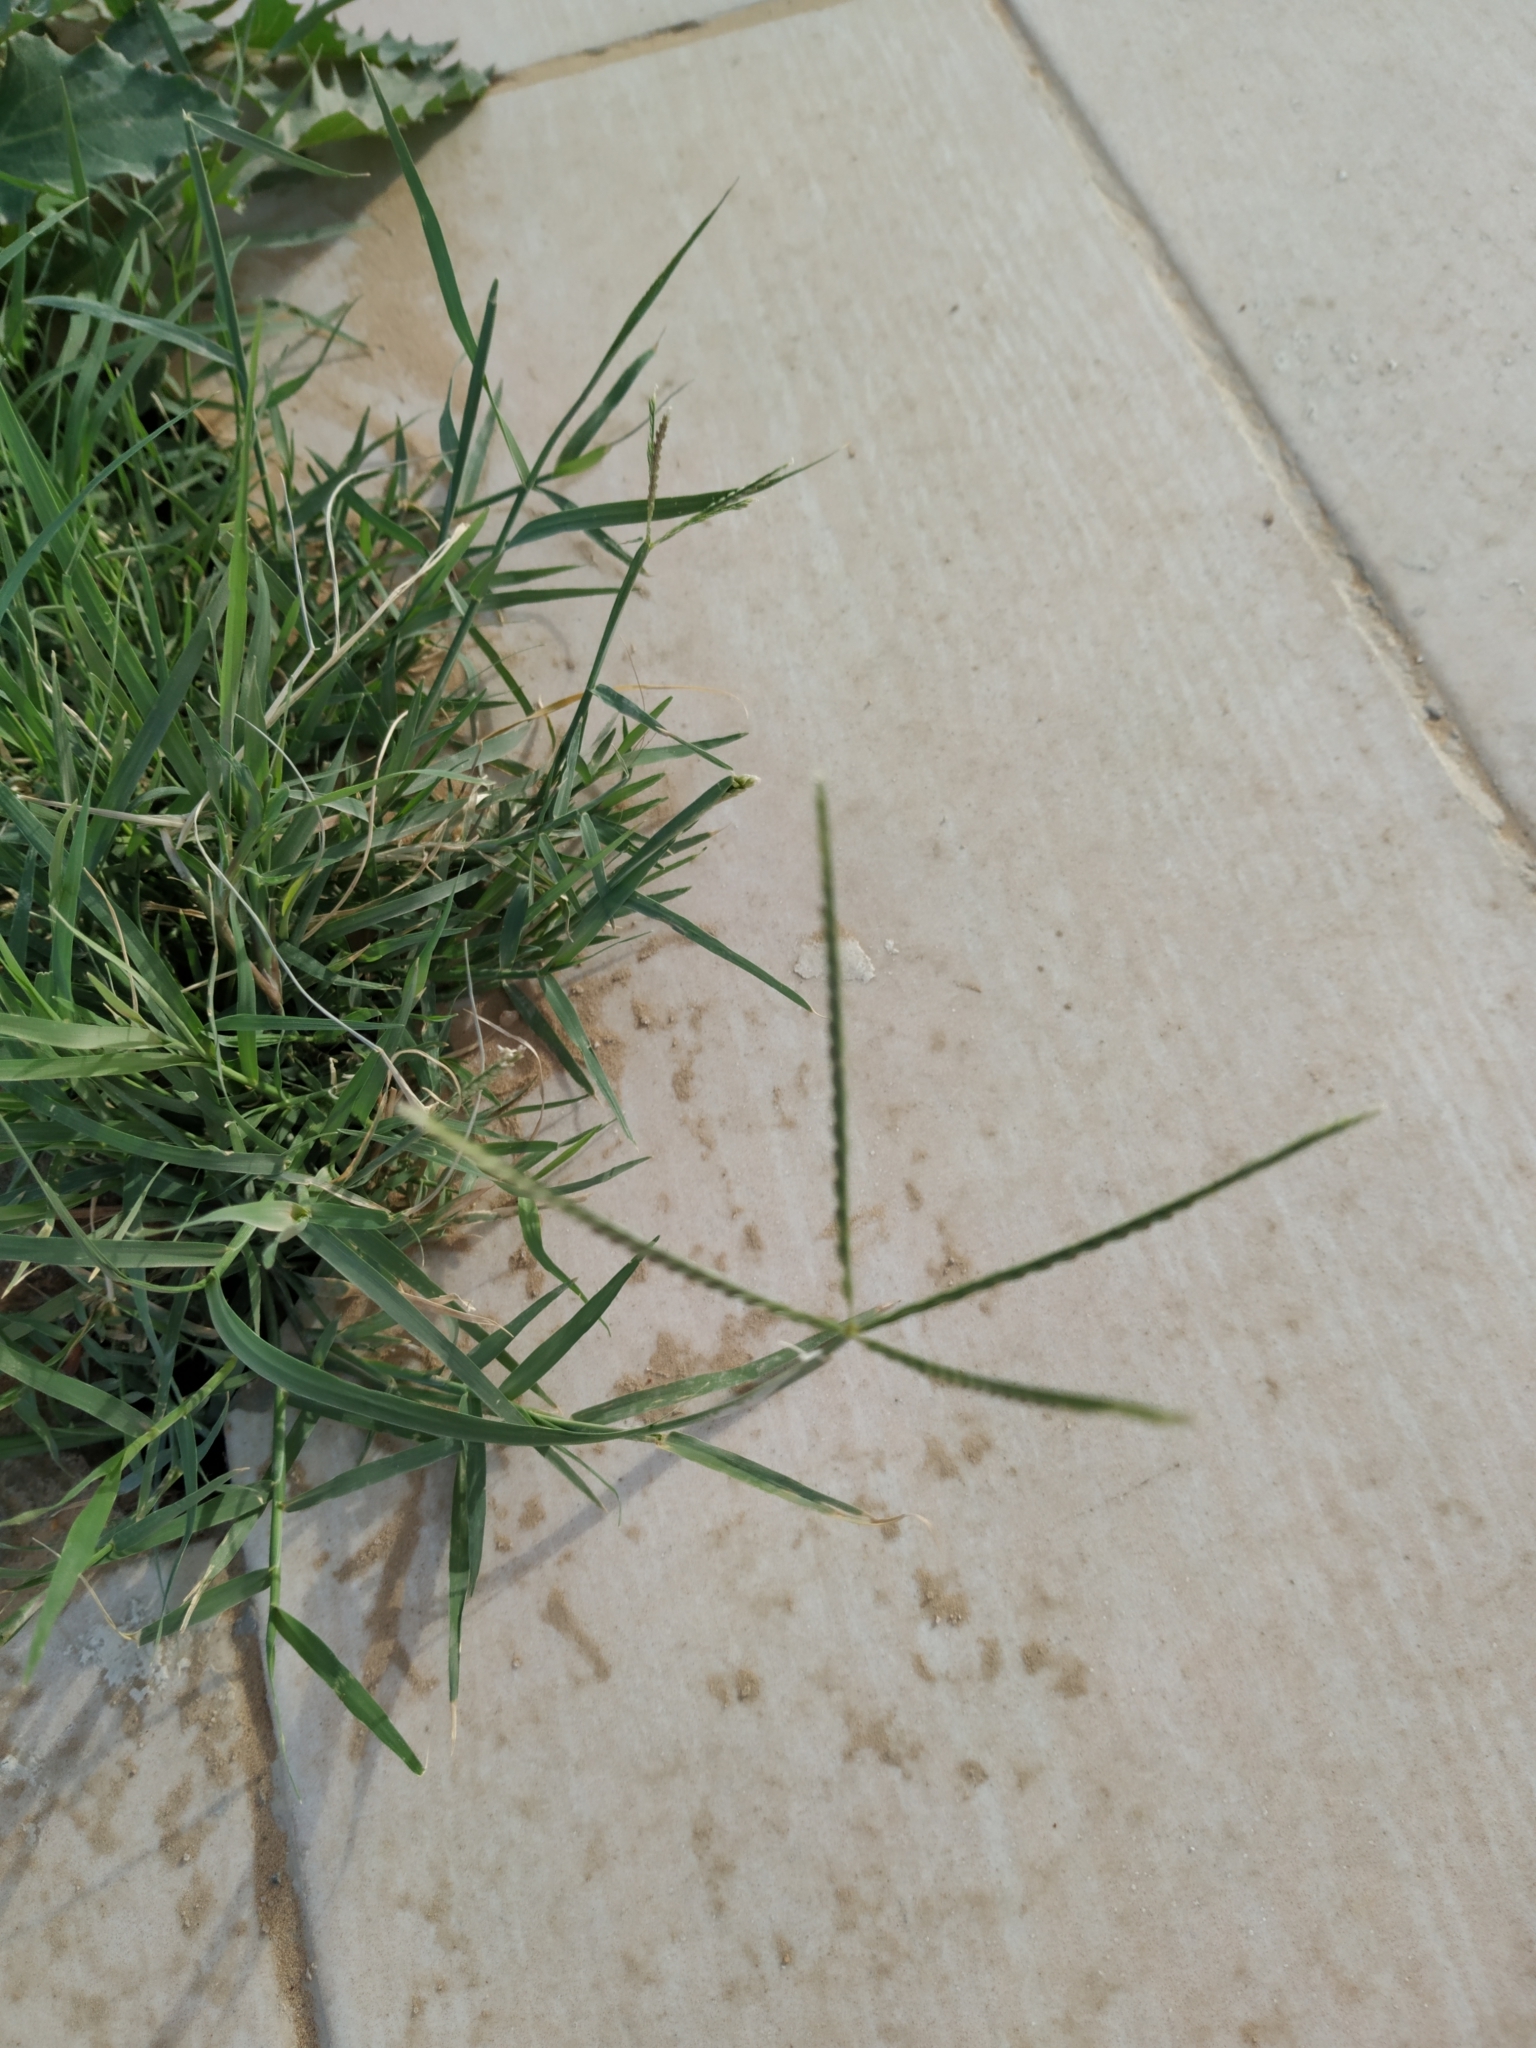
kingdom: Plantae
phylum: Tracheophyta
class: Liliopsida
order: Poales
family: Poaceae
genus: Cynodon
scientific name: Cynodon dactylon
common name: Bermuda grass
